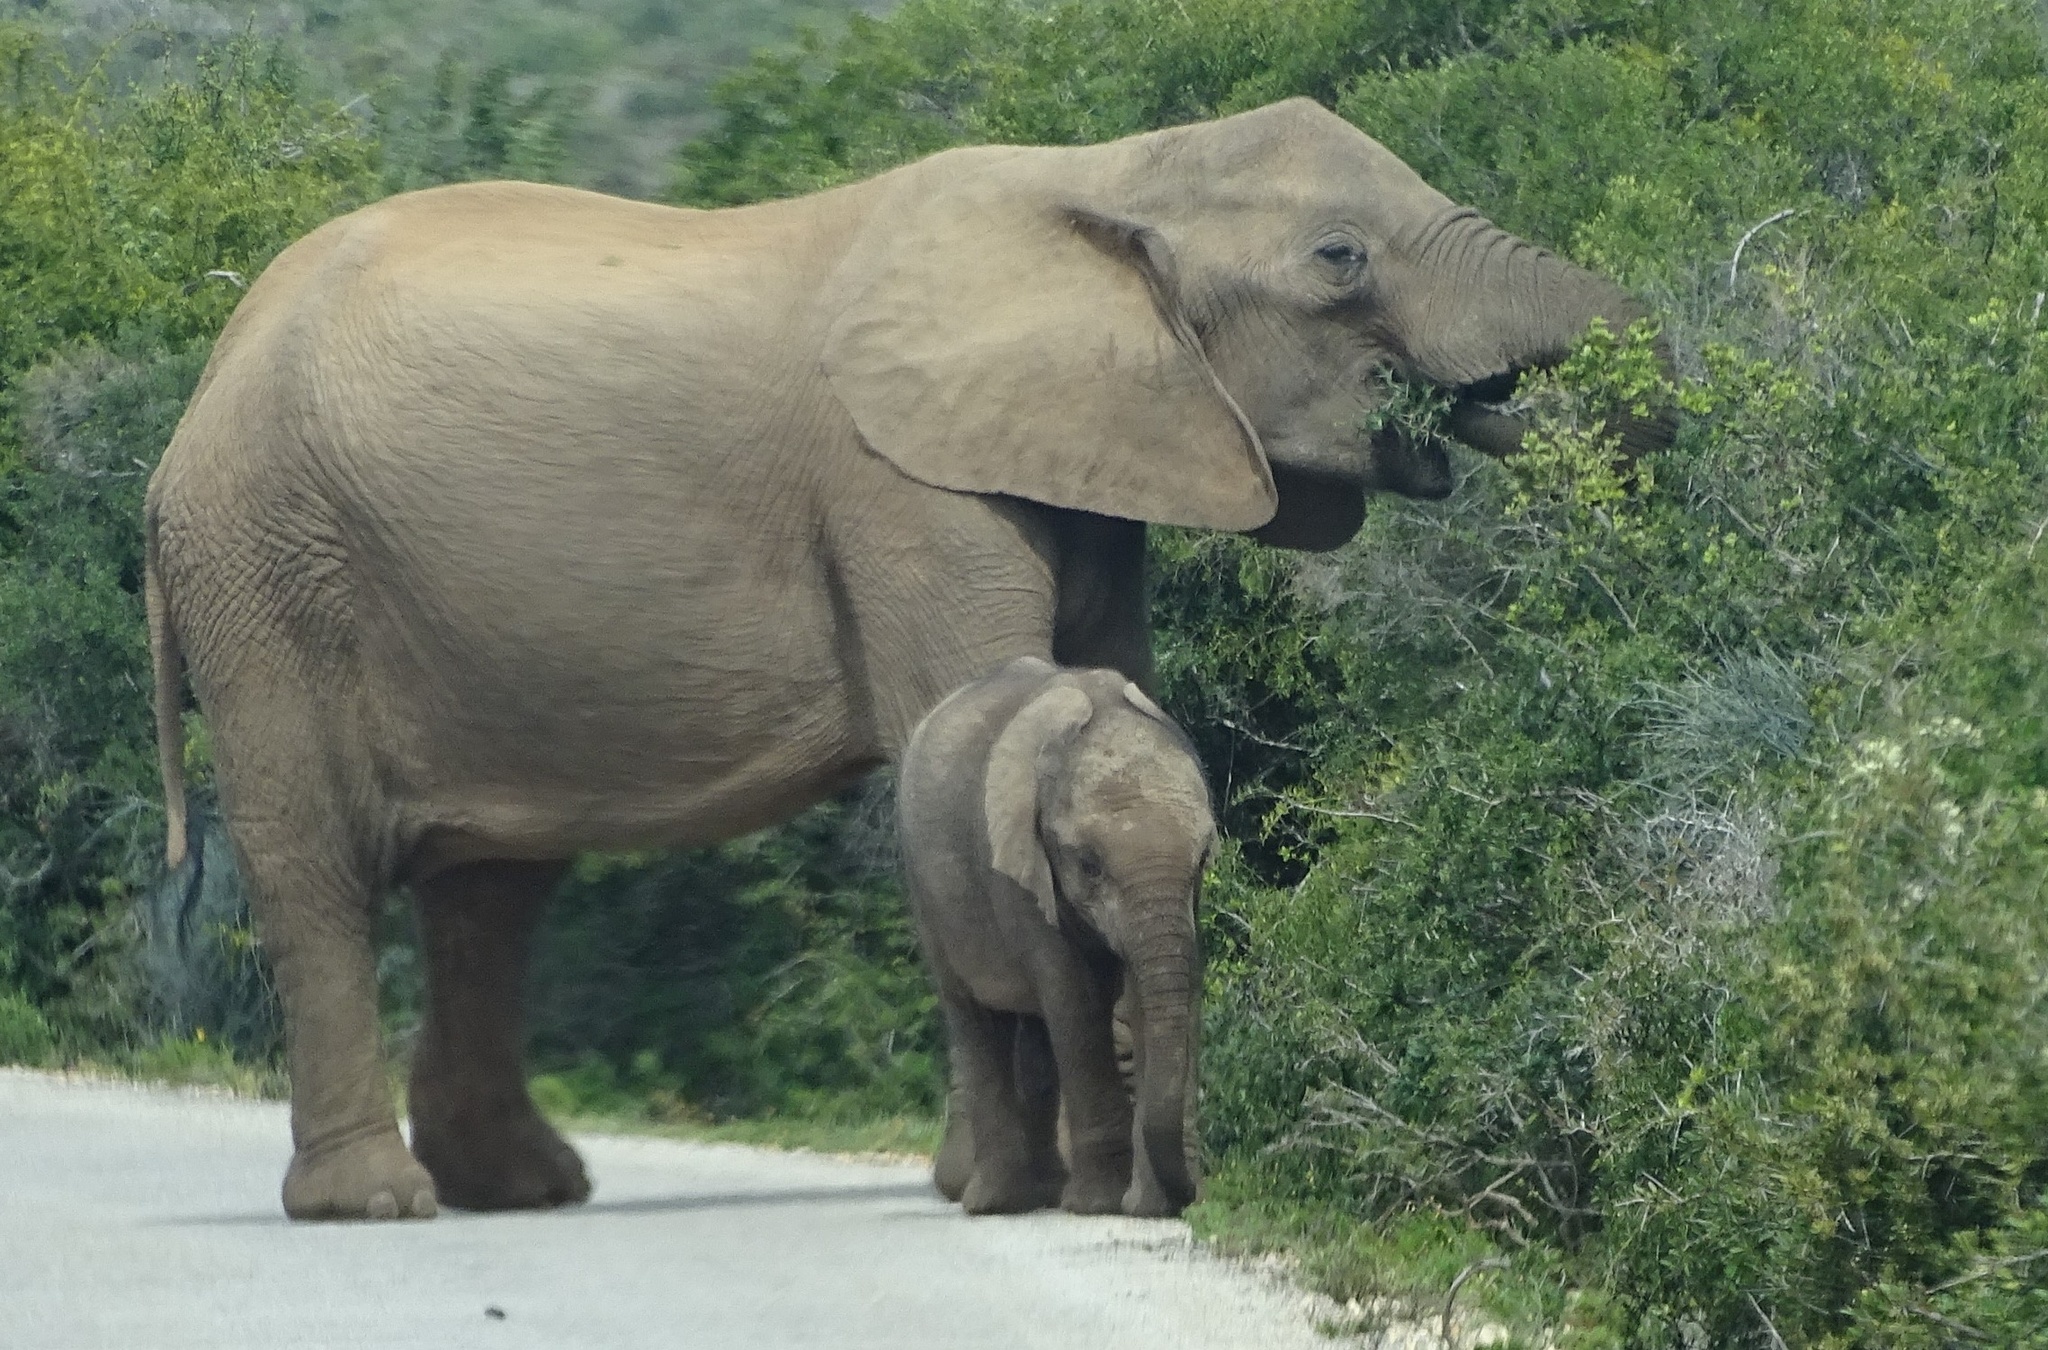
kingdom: Animalia
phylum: Chordata
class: Mammalia
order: Proboscidea
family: Elephantidae
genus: Loxodonta
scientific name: Loxodonta africana
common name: African elephant
